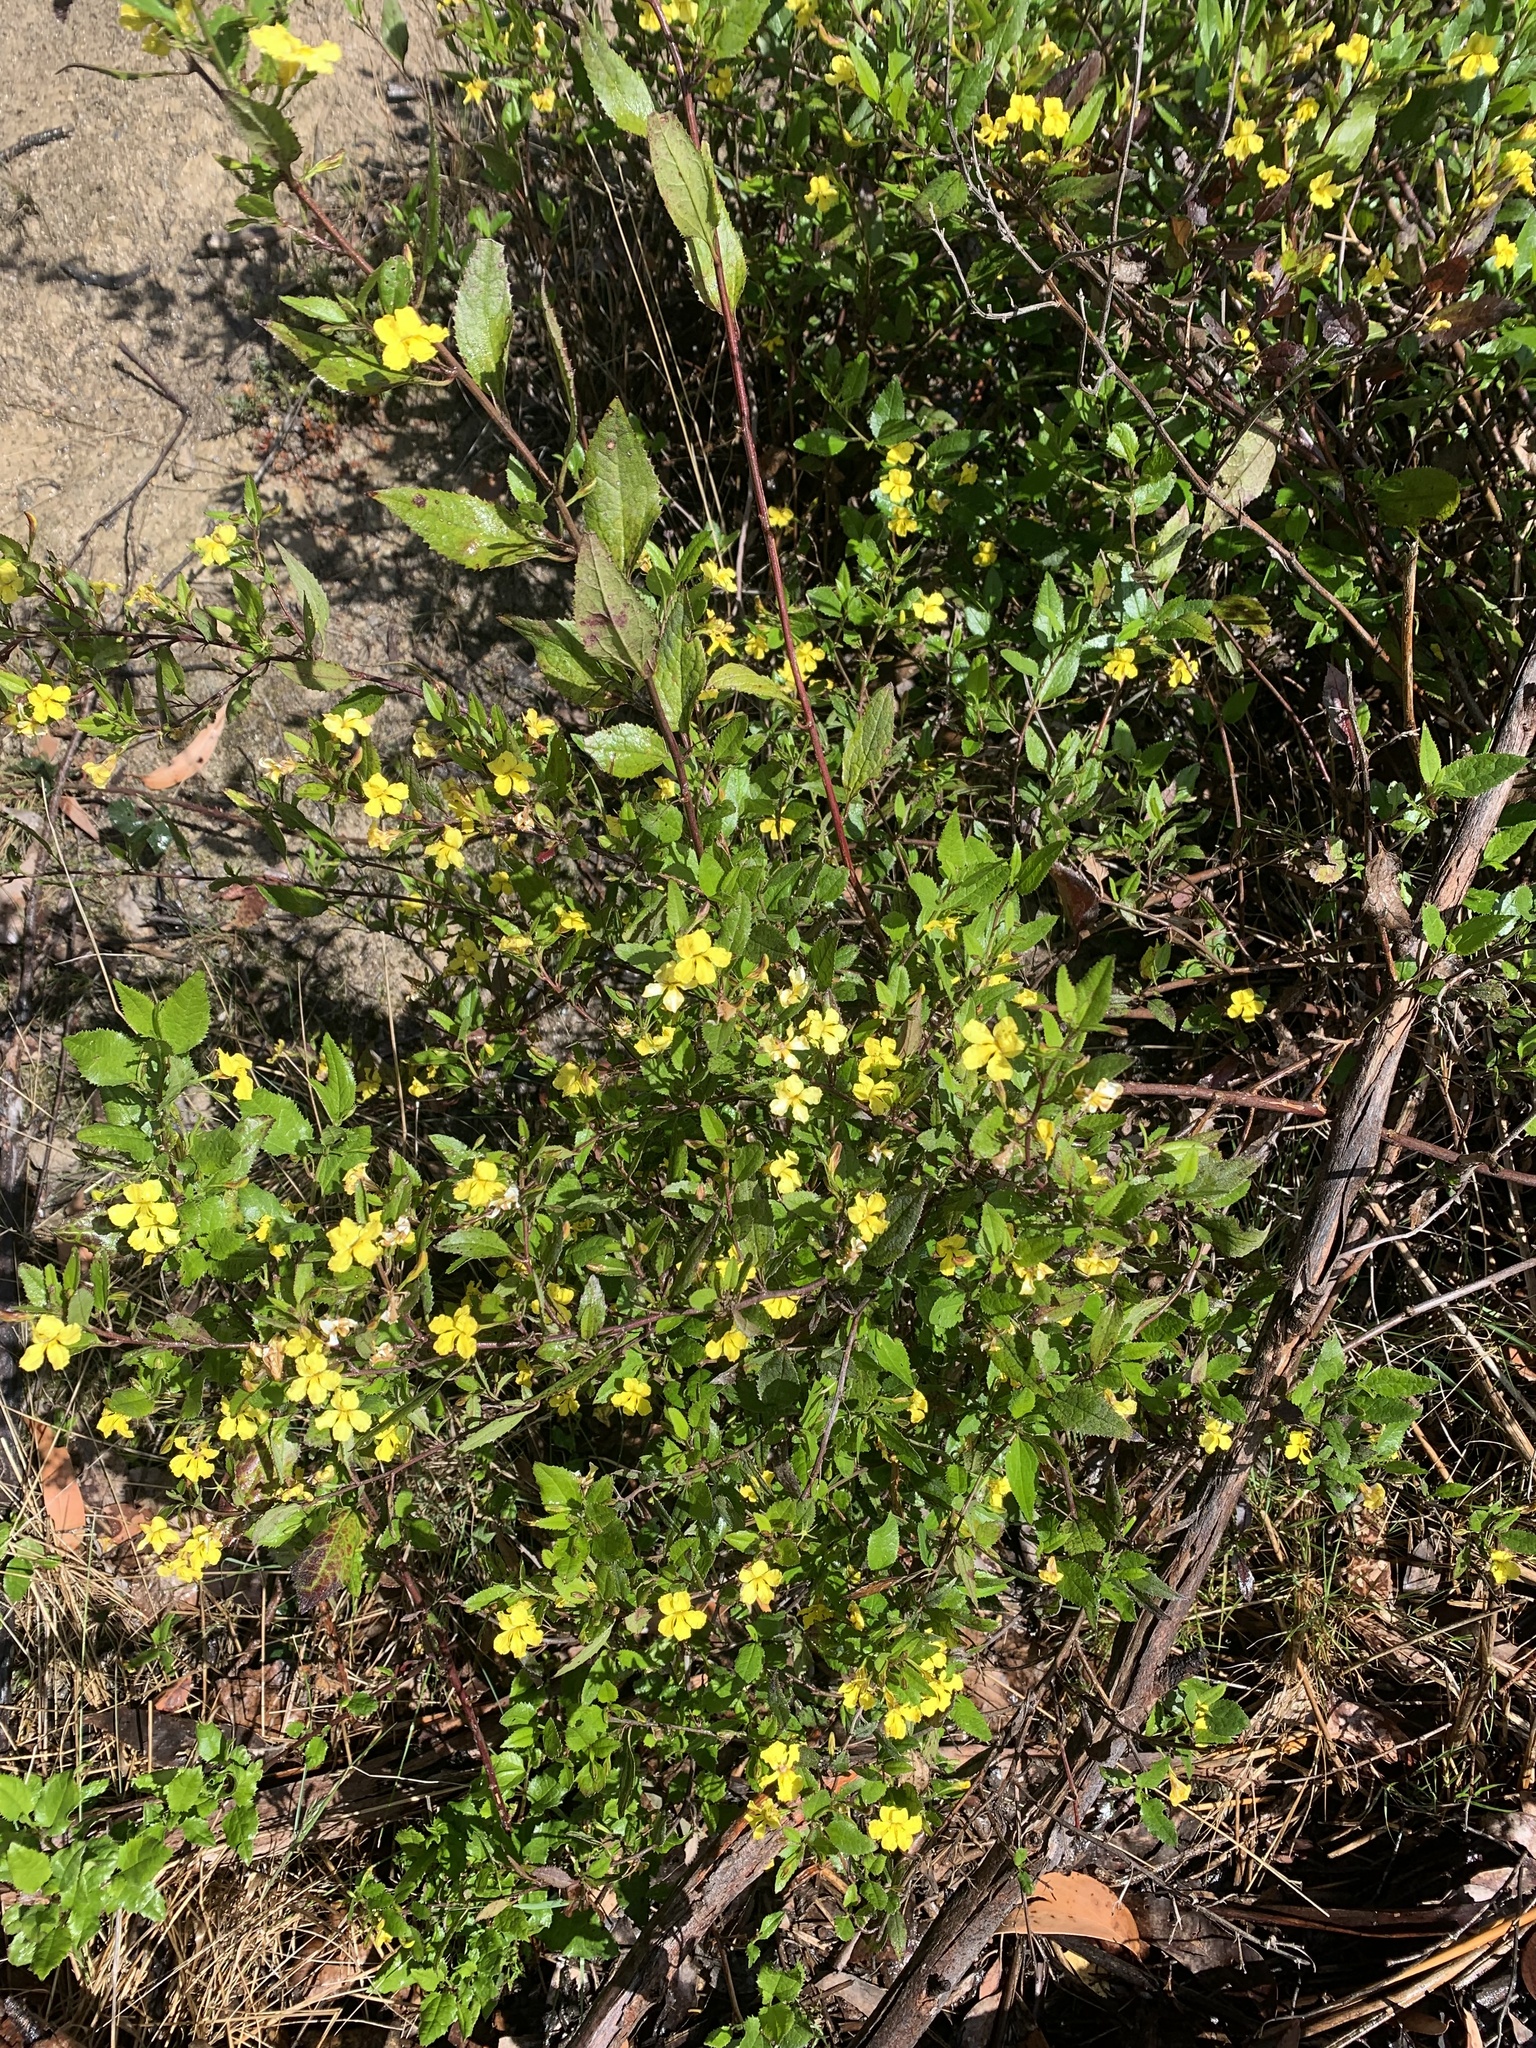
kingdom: Plantae
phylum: Tracheophyta
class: Magnoliopsida
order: Asterales
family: Goodeniaceae
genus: Goodenia
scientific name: Goodenia ovata
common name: Hop goodenia
